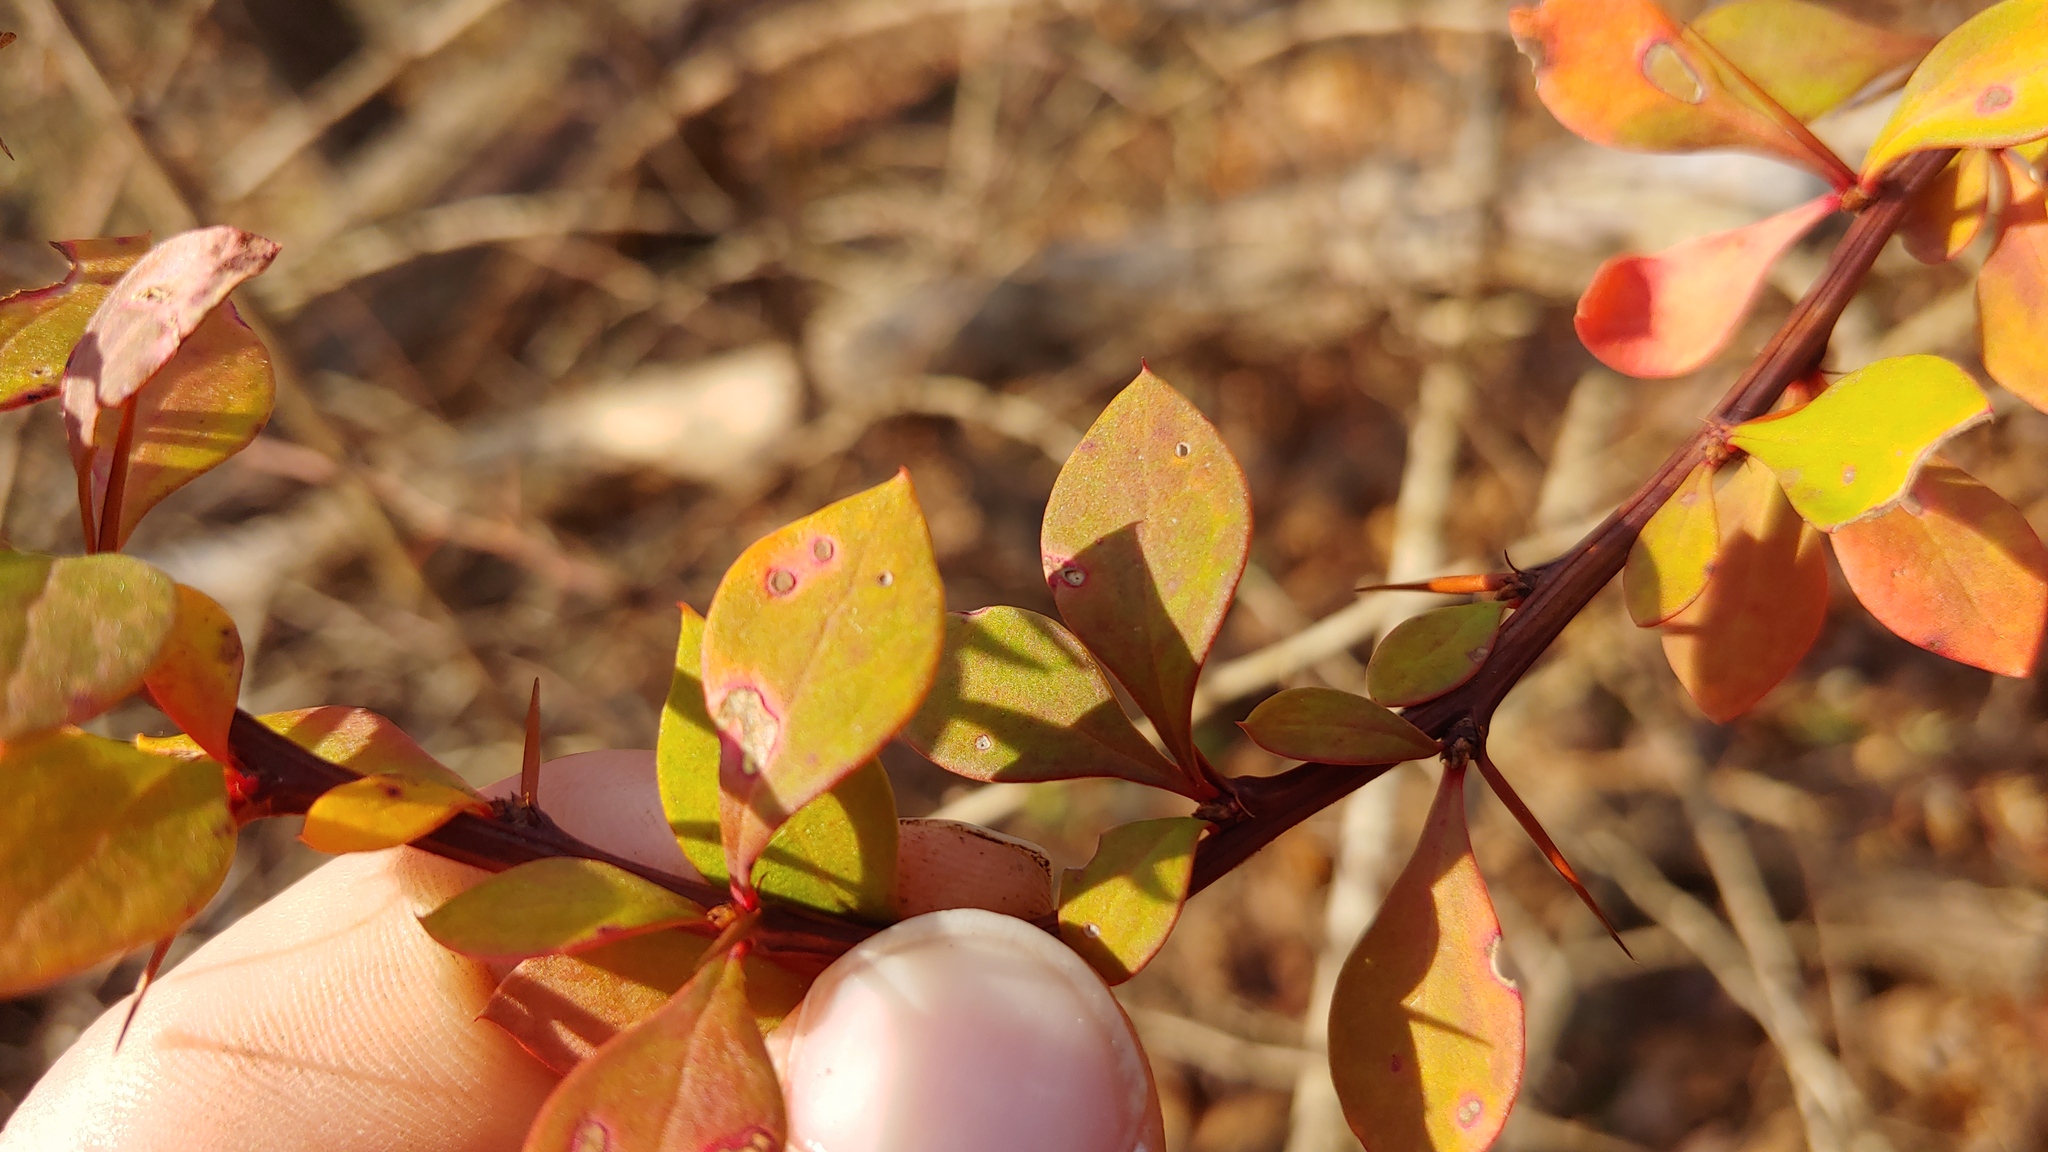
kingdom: Plantae
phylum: Tracheophyta
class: Magnoliopsida
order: Ranunculales
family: Berberidaceae
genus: Berberis
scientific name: Berberis thunbergii
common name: Japanese barberry
